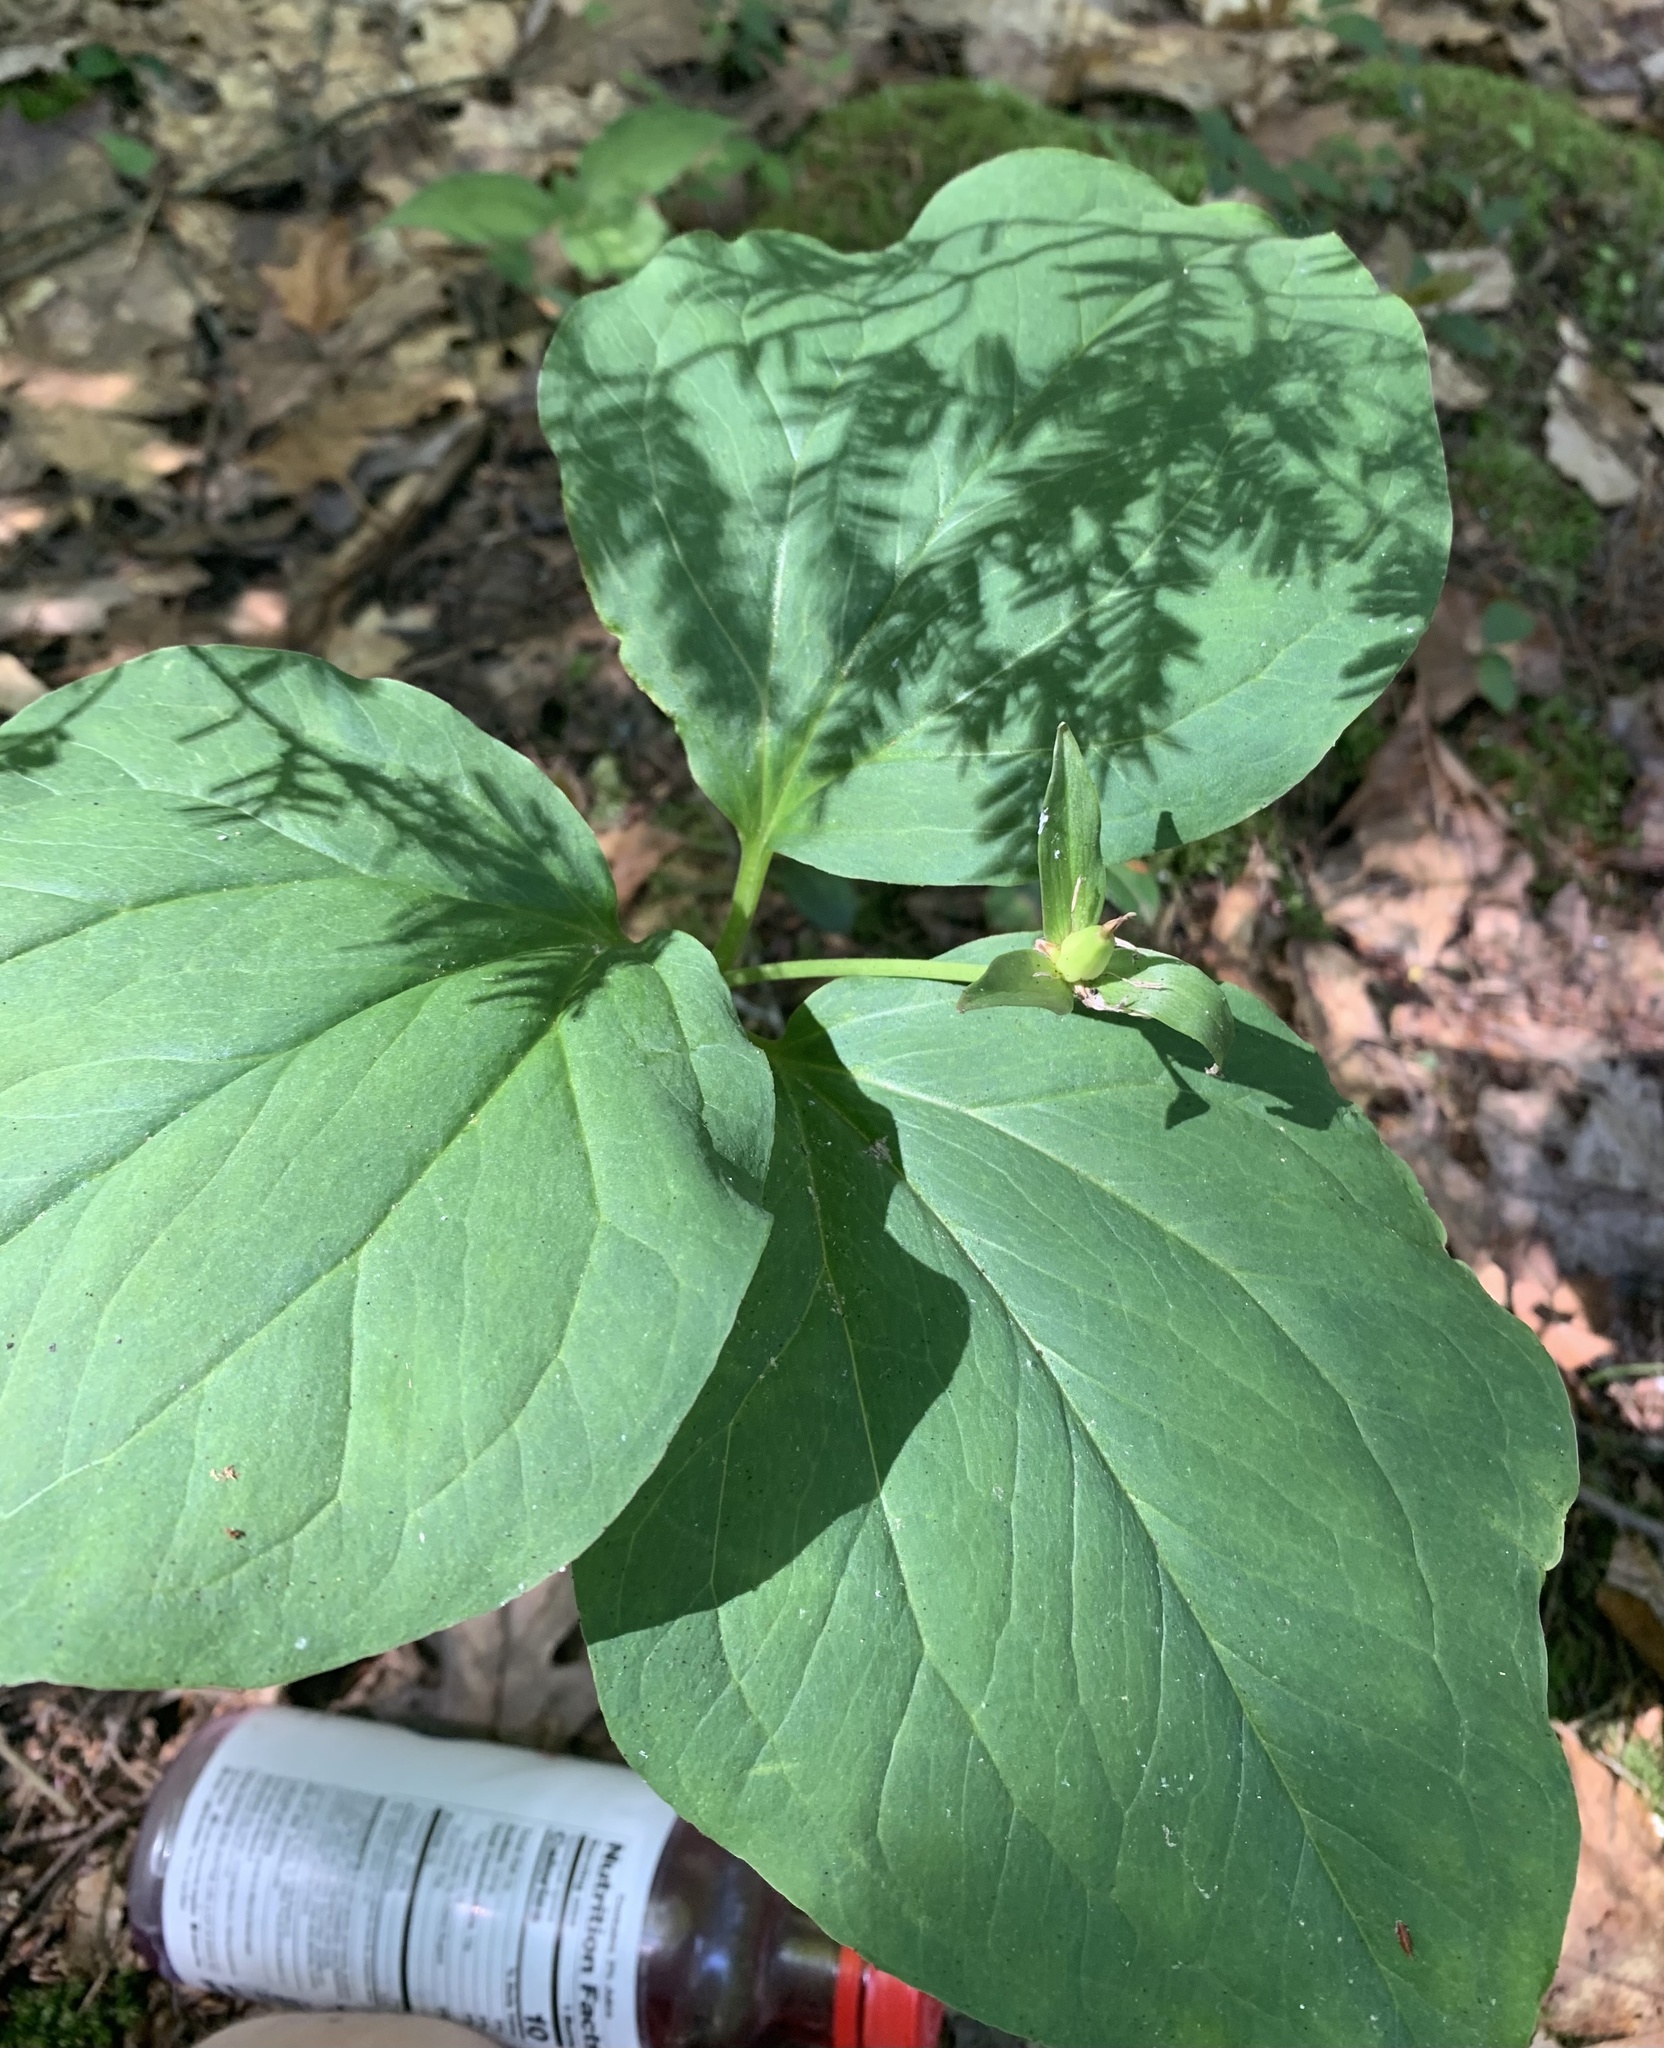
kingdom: Plantae
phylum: Tracheophyta
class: Liliopsida
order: Liliales
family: Melanthiaceae
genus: Trillium
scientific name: Trillium undulatum
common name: Paint trillium
